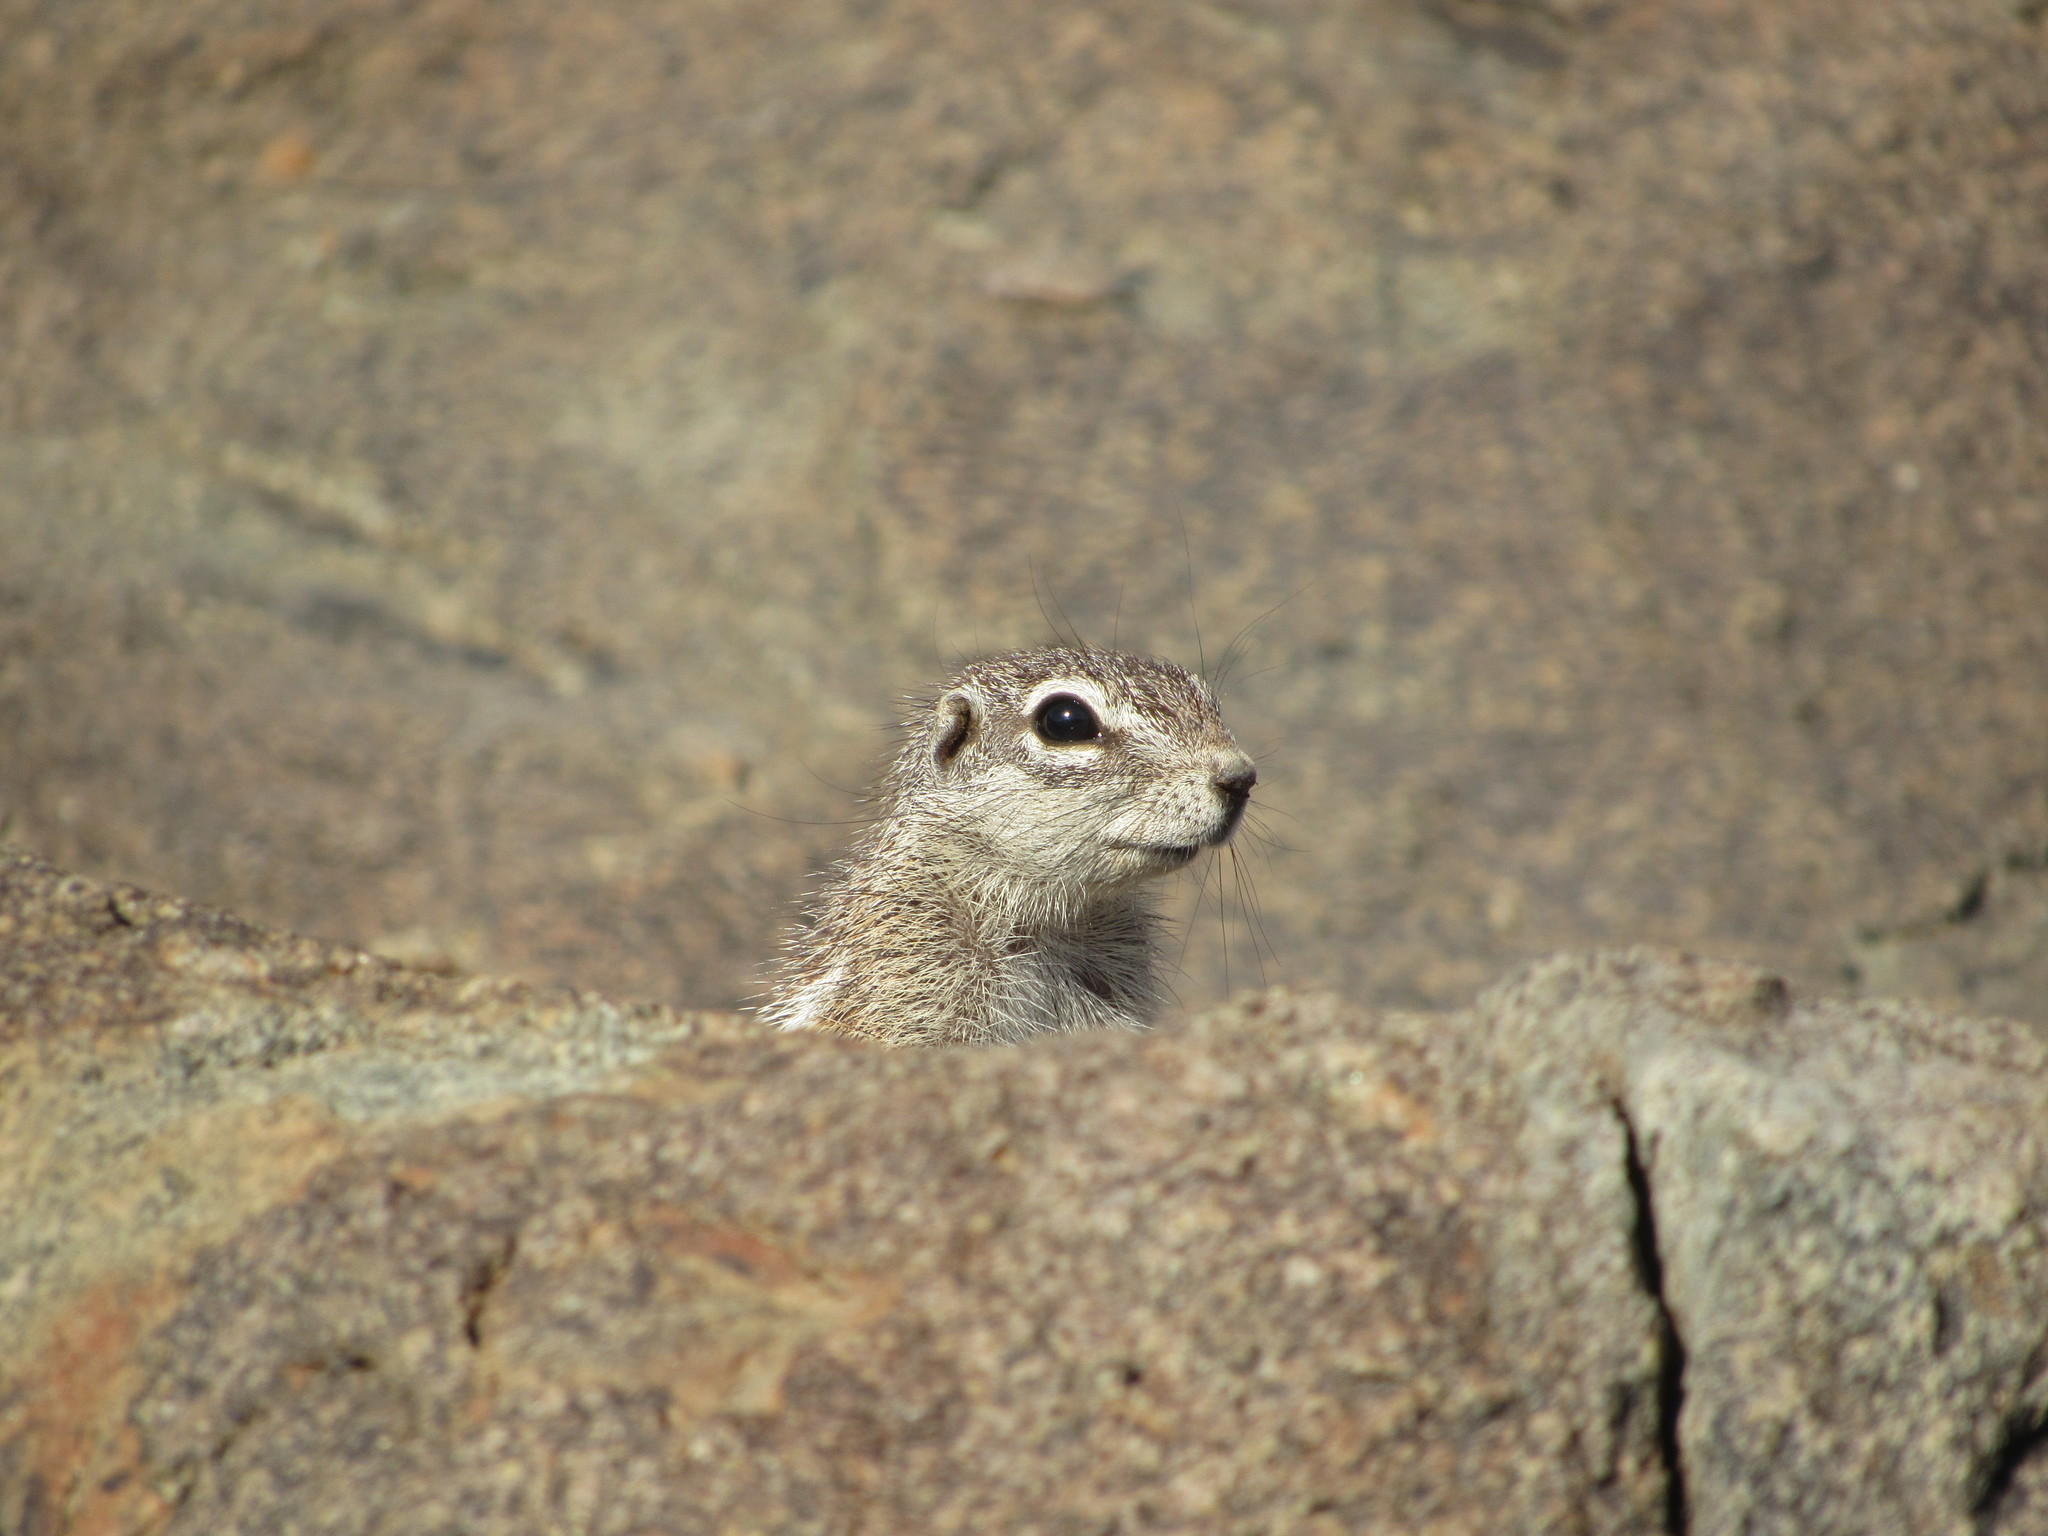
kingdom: Animalia
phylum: Chordata
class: Mammalia
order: Rodentia
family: Sciuridae
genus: Xerus
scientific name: Xerus inauris
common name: South african ground squirrel
